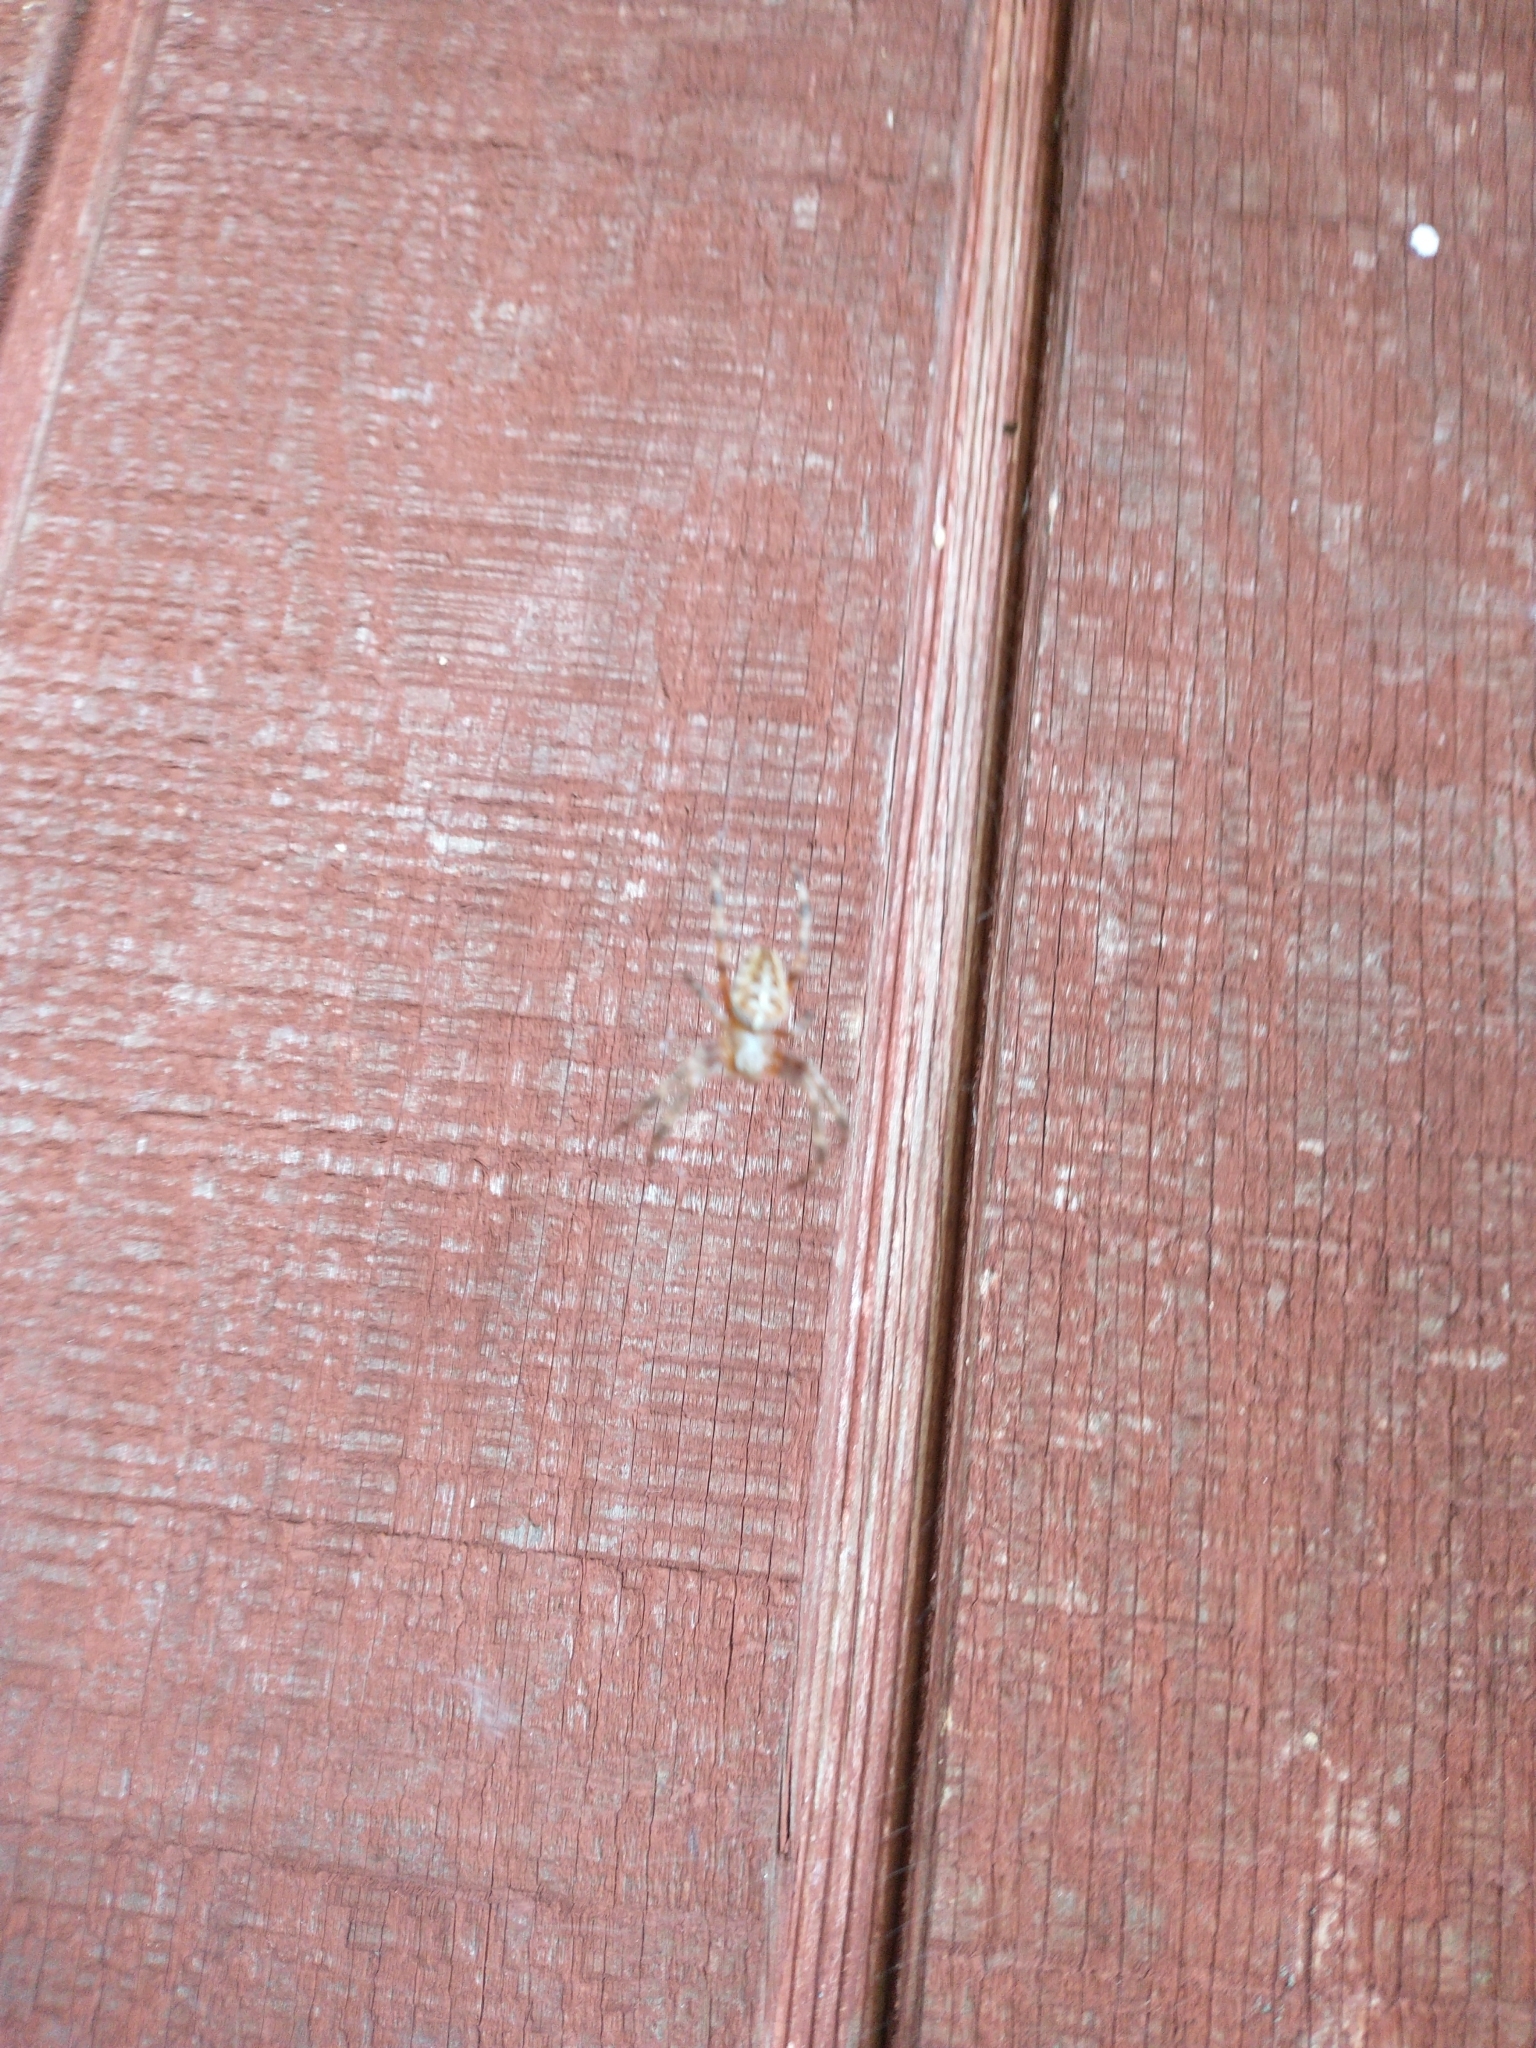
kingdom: Animalia
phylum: Arthropoda
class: Arachnida
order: Araneae
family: Araneidae
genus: Araneus
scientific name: Araneus diadematus
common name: Cross orbweaver
